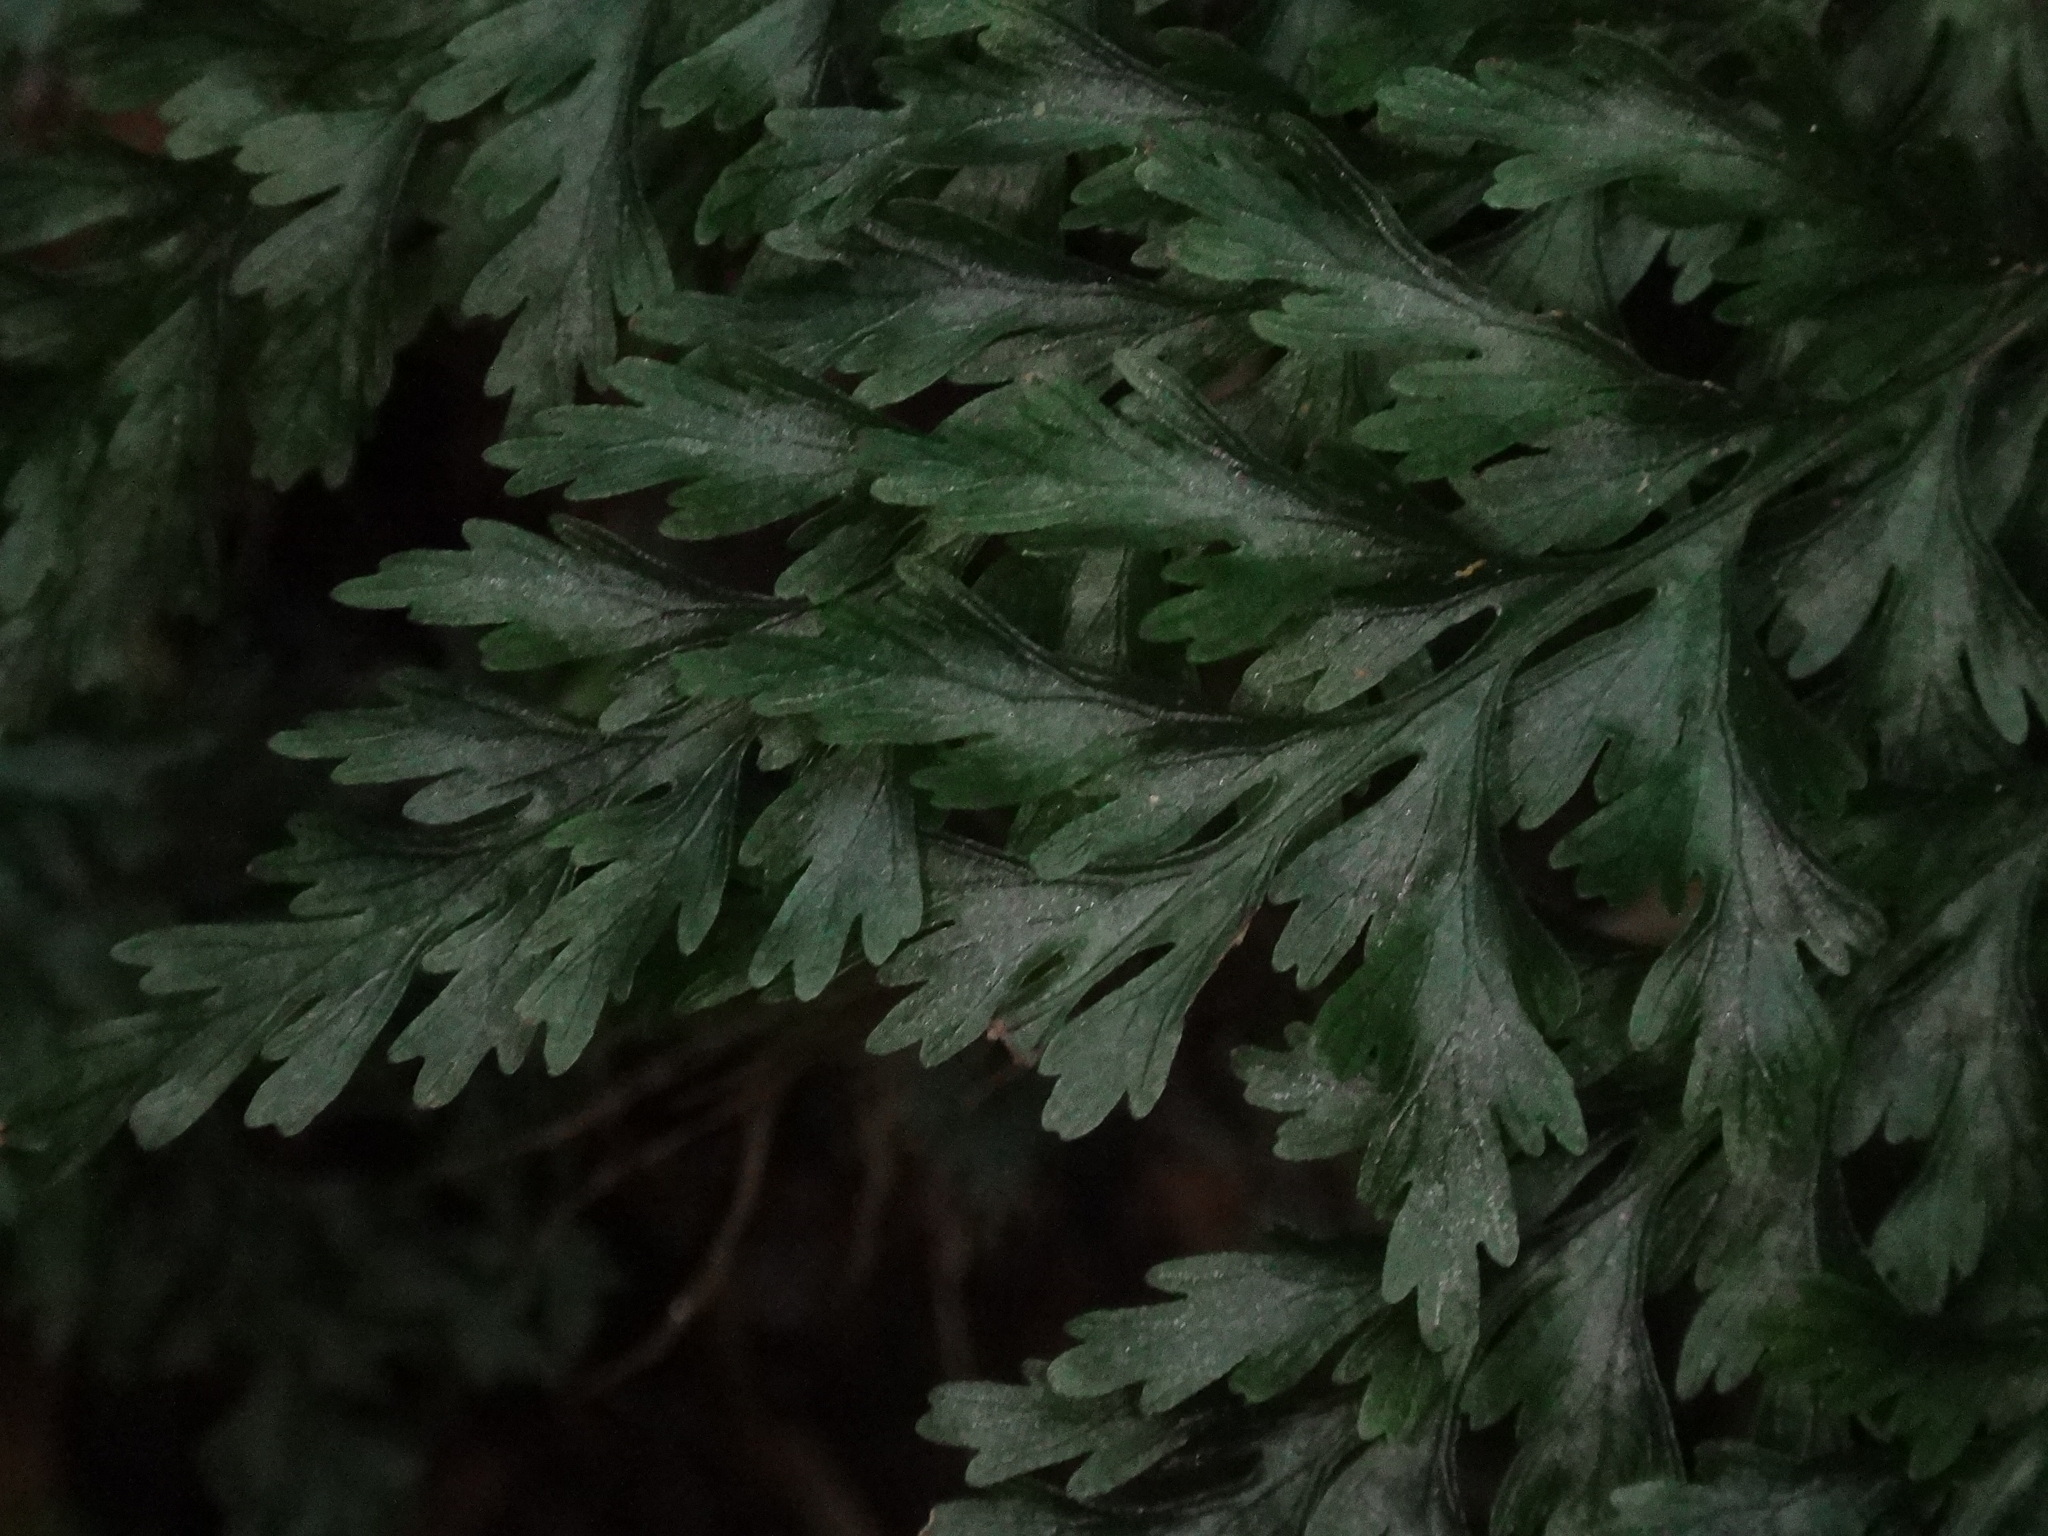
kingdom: Plantae
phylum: Tracheophyta
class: Polypodiopsida
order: Hymenophyllales
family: Hymenophyllaceae
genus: Vandenboschia
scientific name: Vandenboschia speciosa
